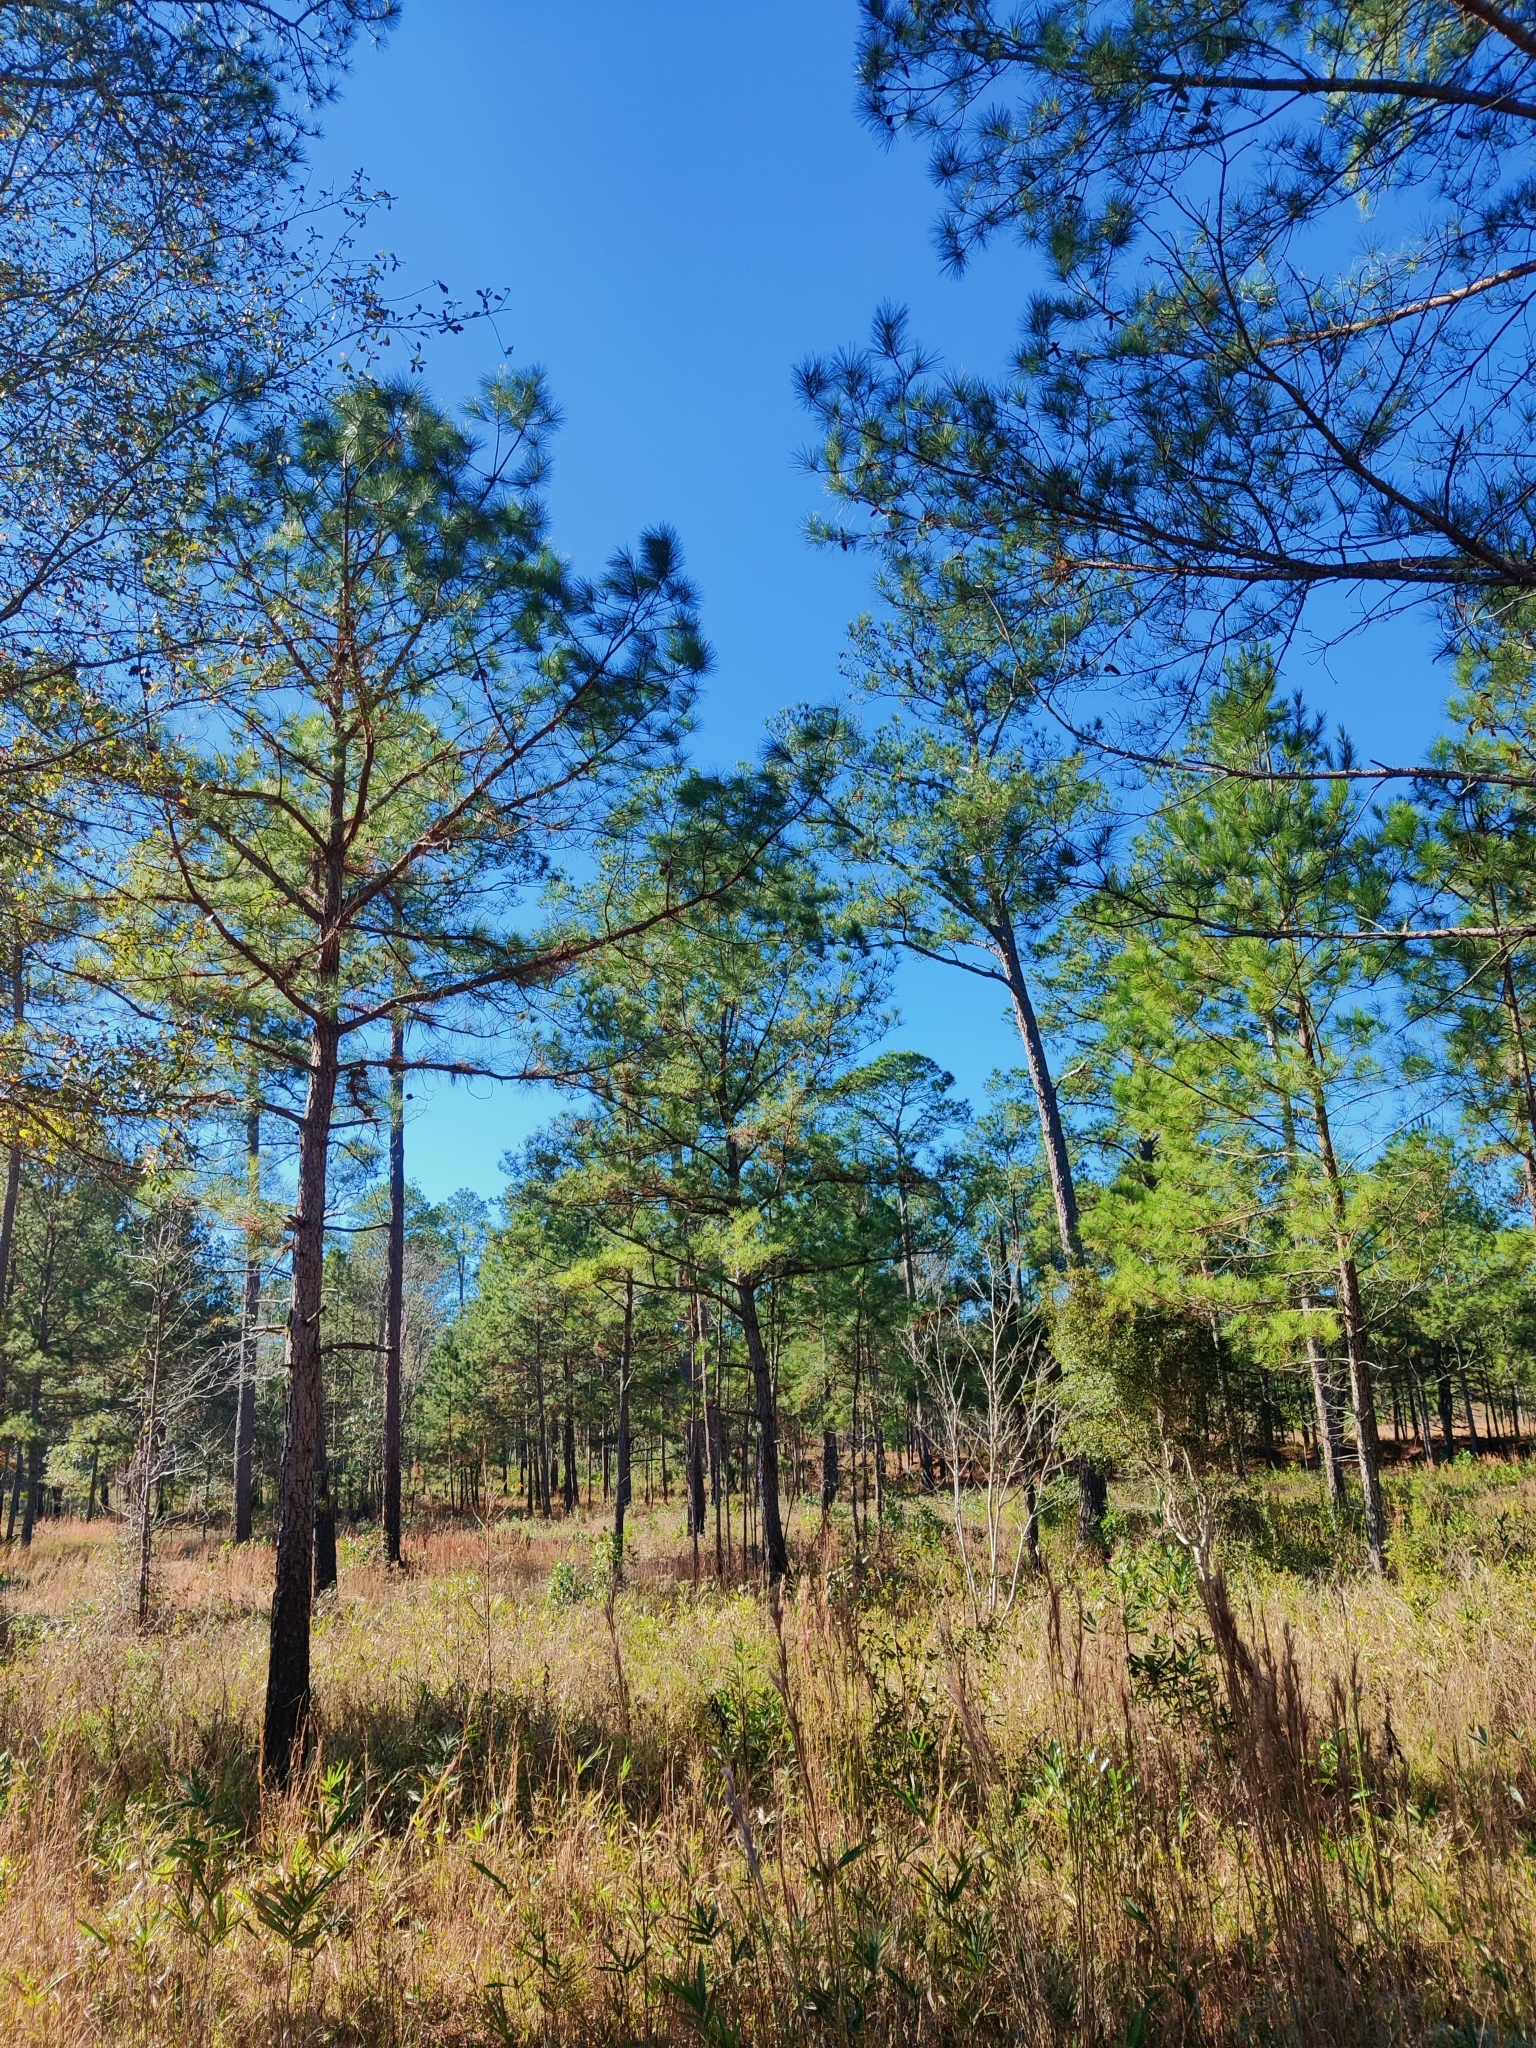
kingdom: Plantae
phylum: Tracheophyta
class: Pinopsida
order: Pinales
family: Pinaceae
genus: Pinus
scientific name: Pinus serotina
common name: Marsh pine
